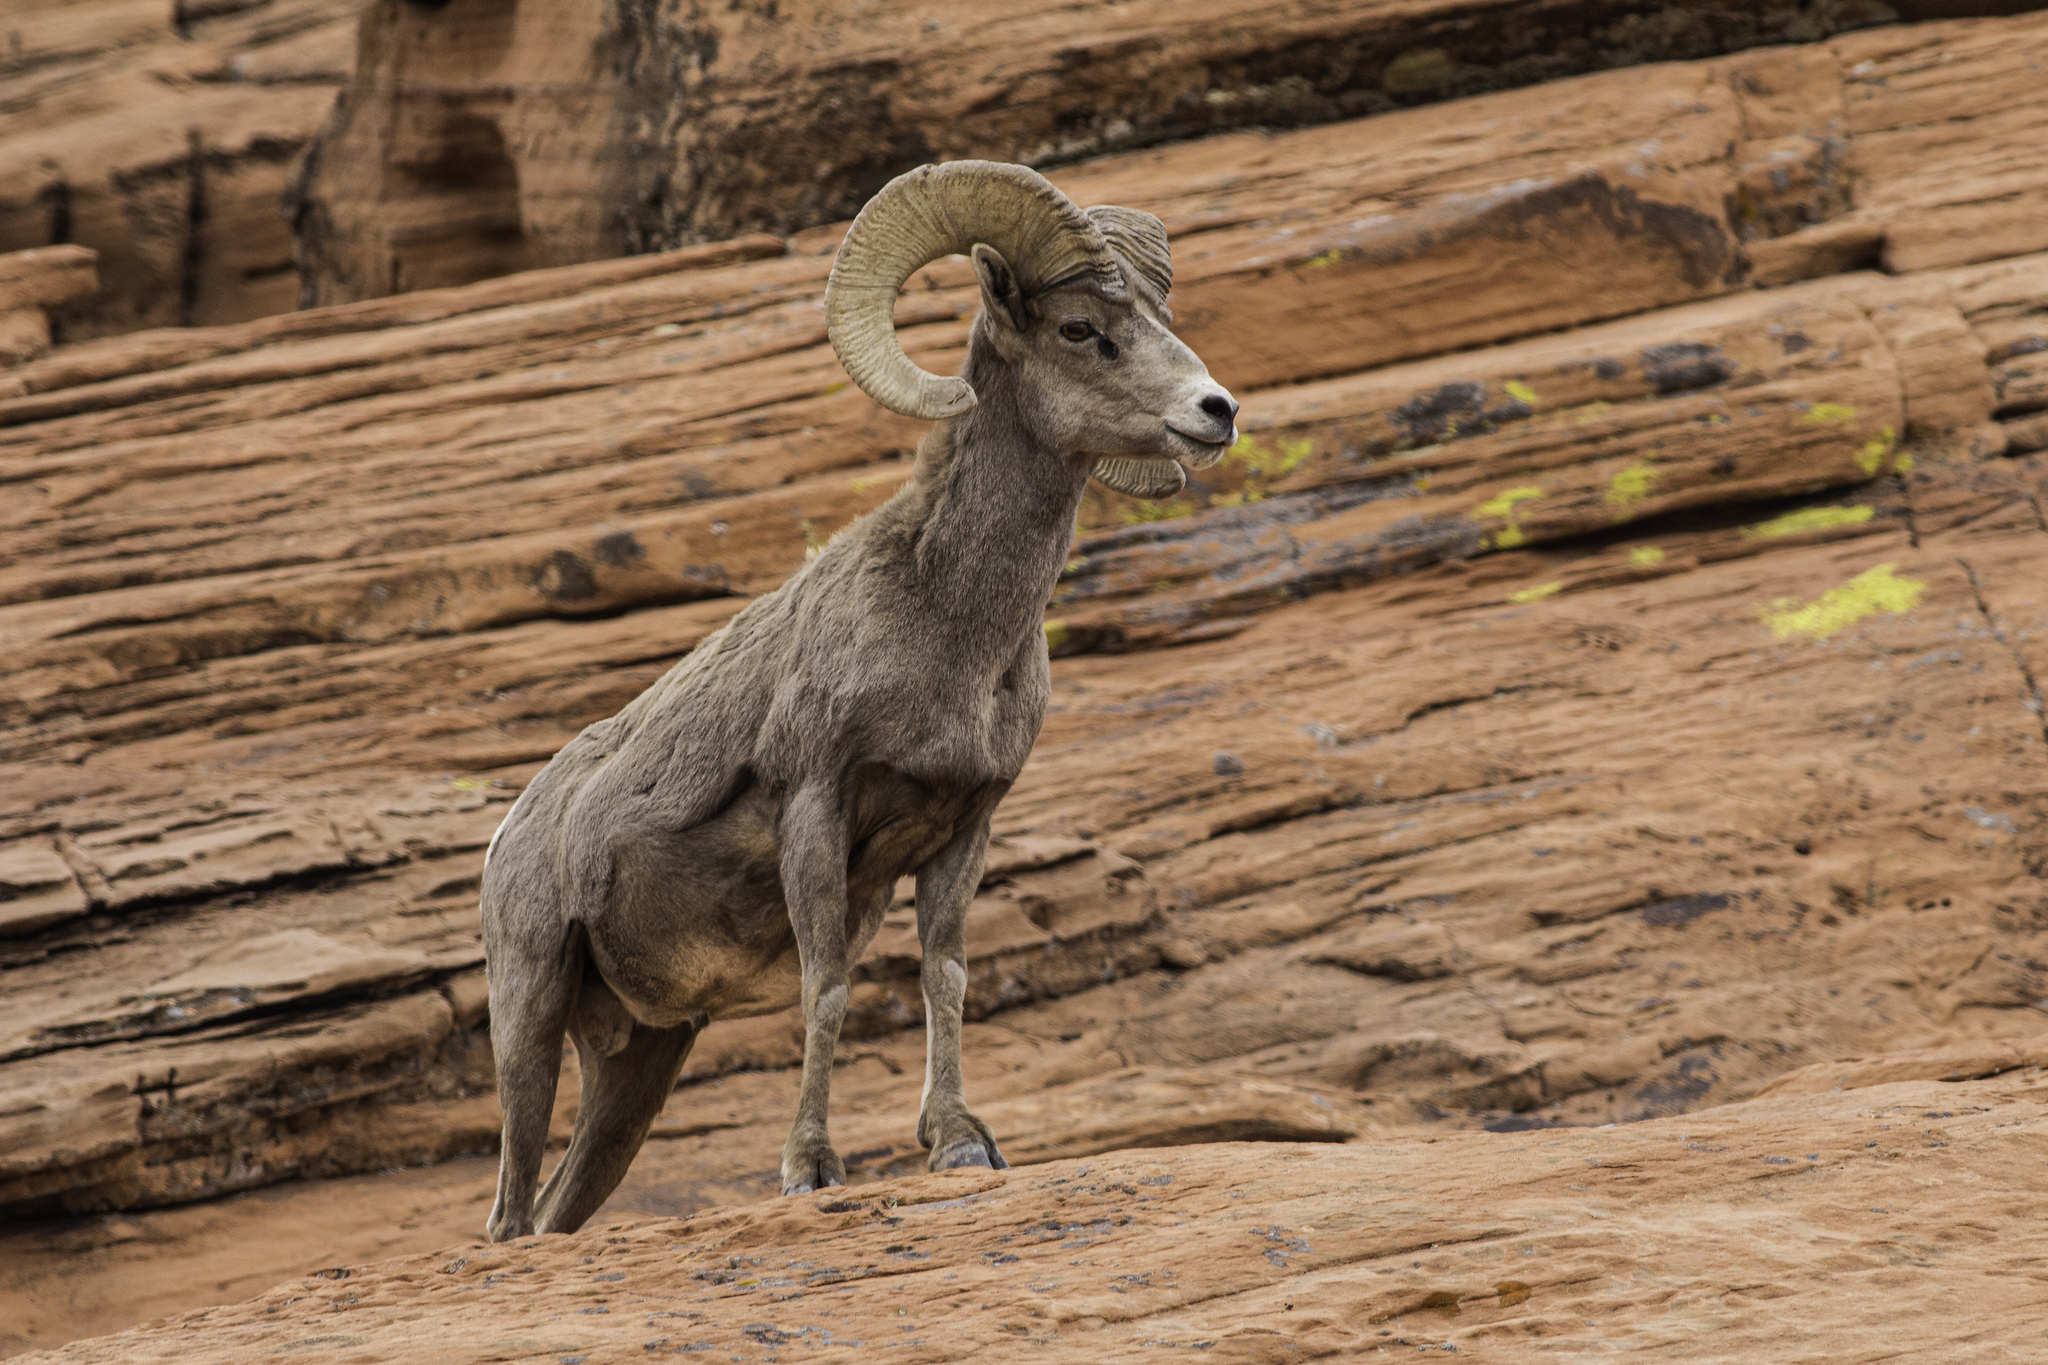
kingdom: Animalia
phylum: Chordata
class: Mammalia
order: Artiodactyla
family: Bovidae
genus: Ovis
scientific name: Ovis canadensis
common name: Bighorn sheep
